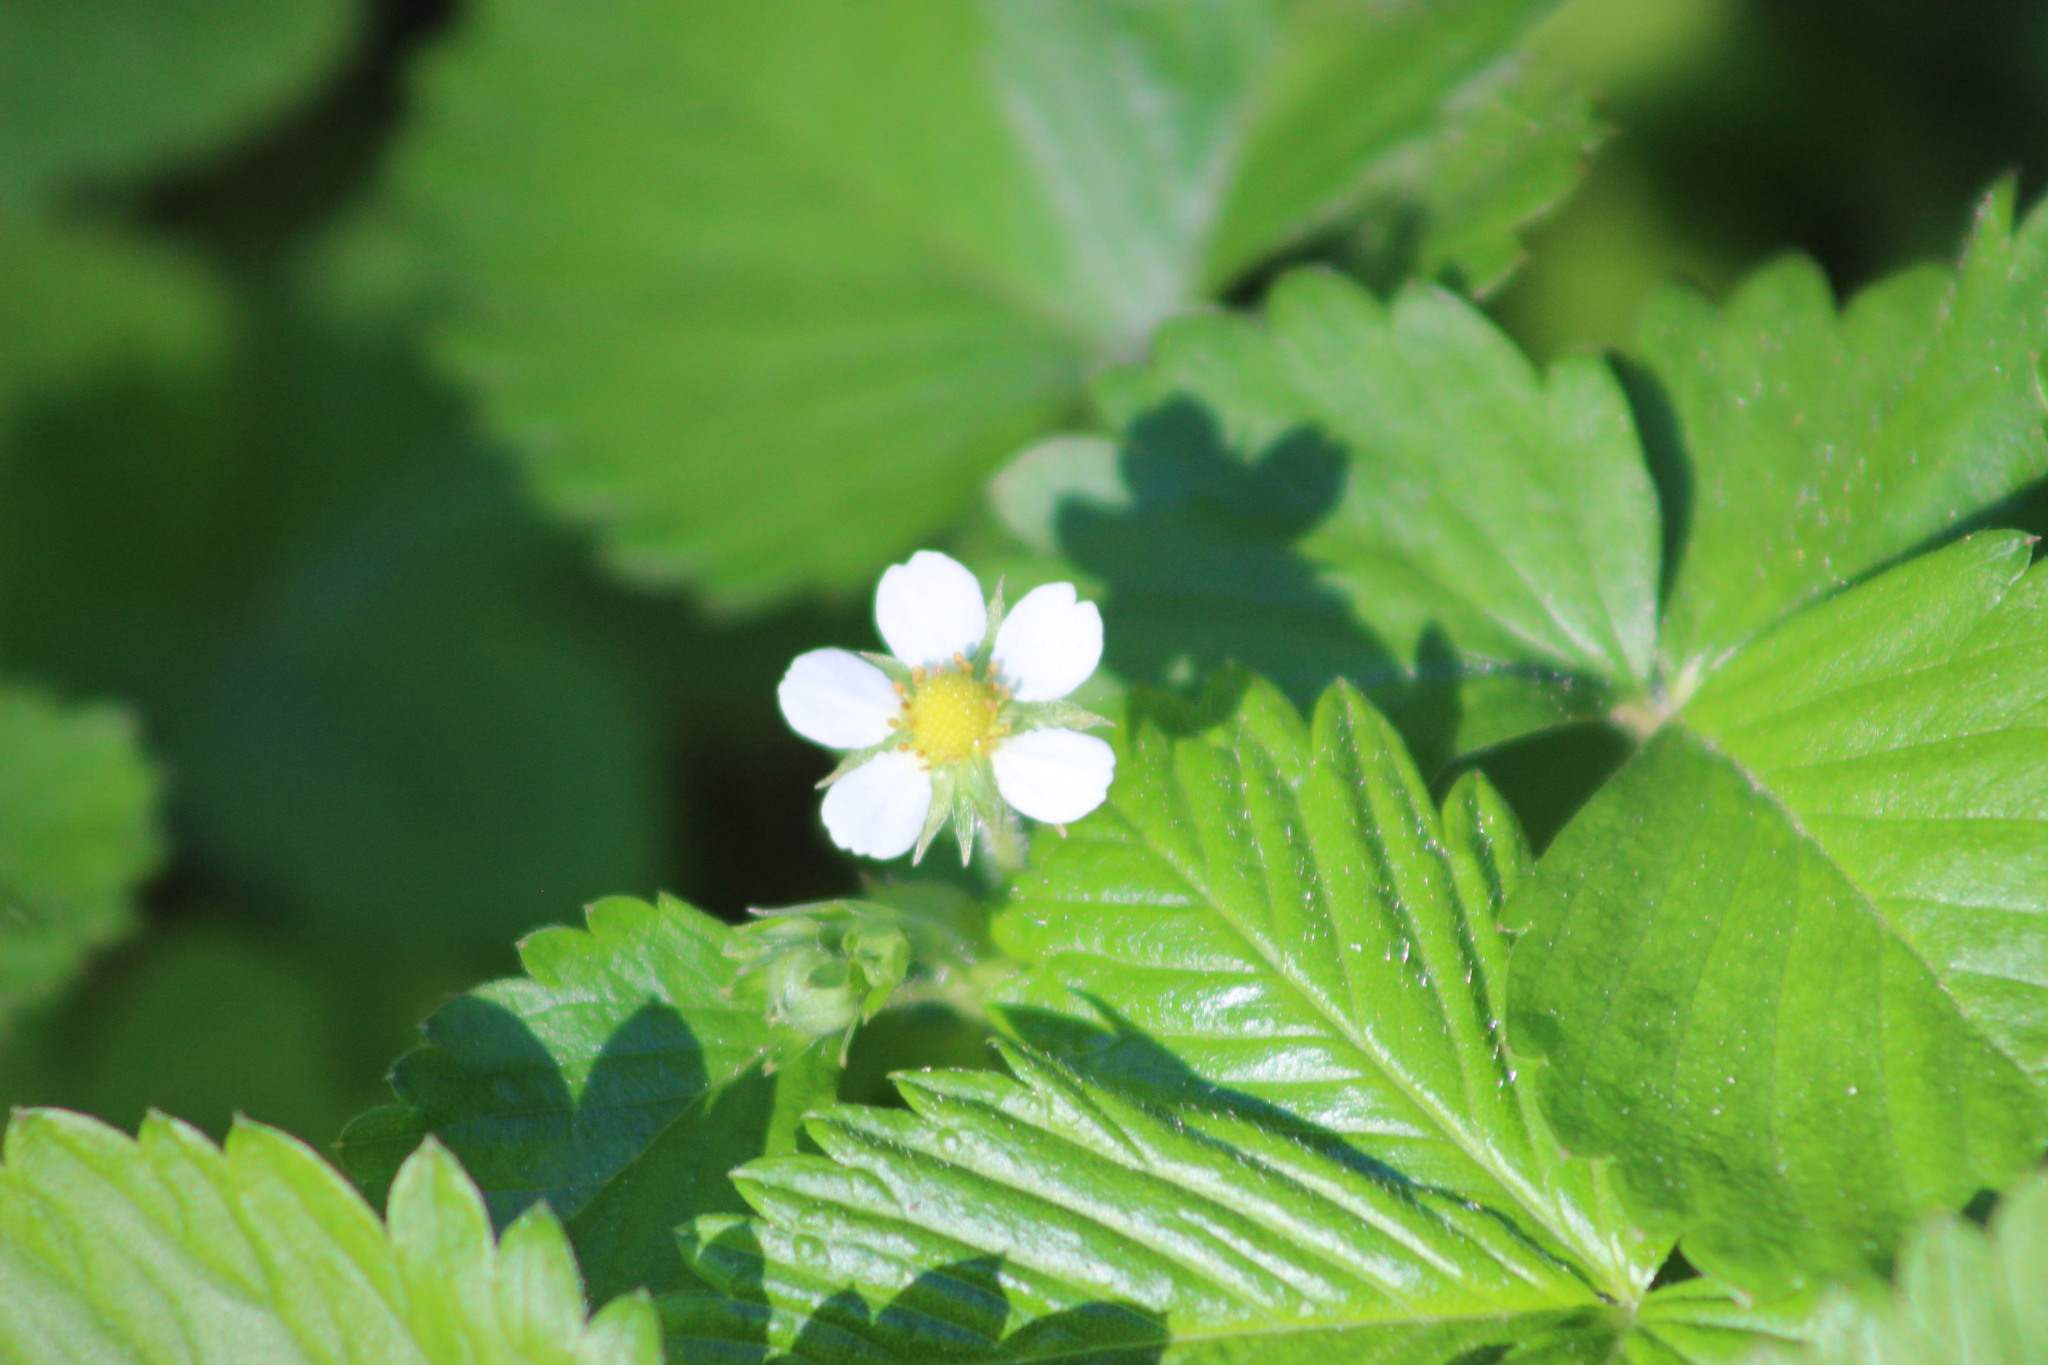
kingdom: Plantae
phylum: Tracheophyta
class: Magnoliopsida
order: Rosales
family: Rosaceae
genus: Fragaria
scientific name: Fragaria vesca
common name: Wild strawberry
